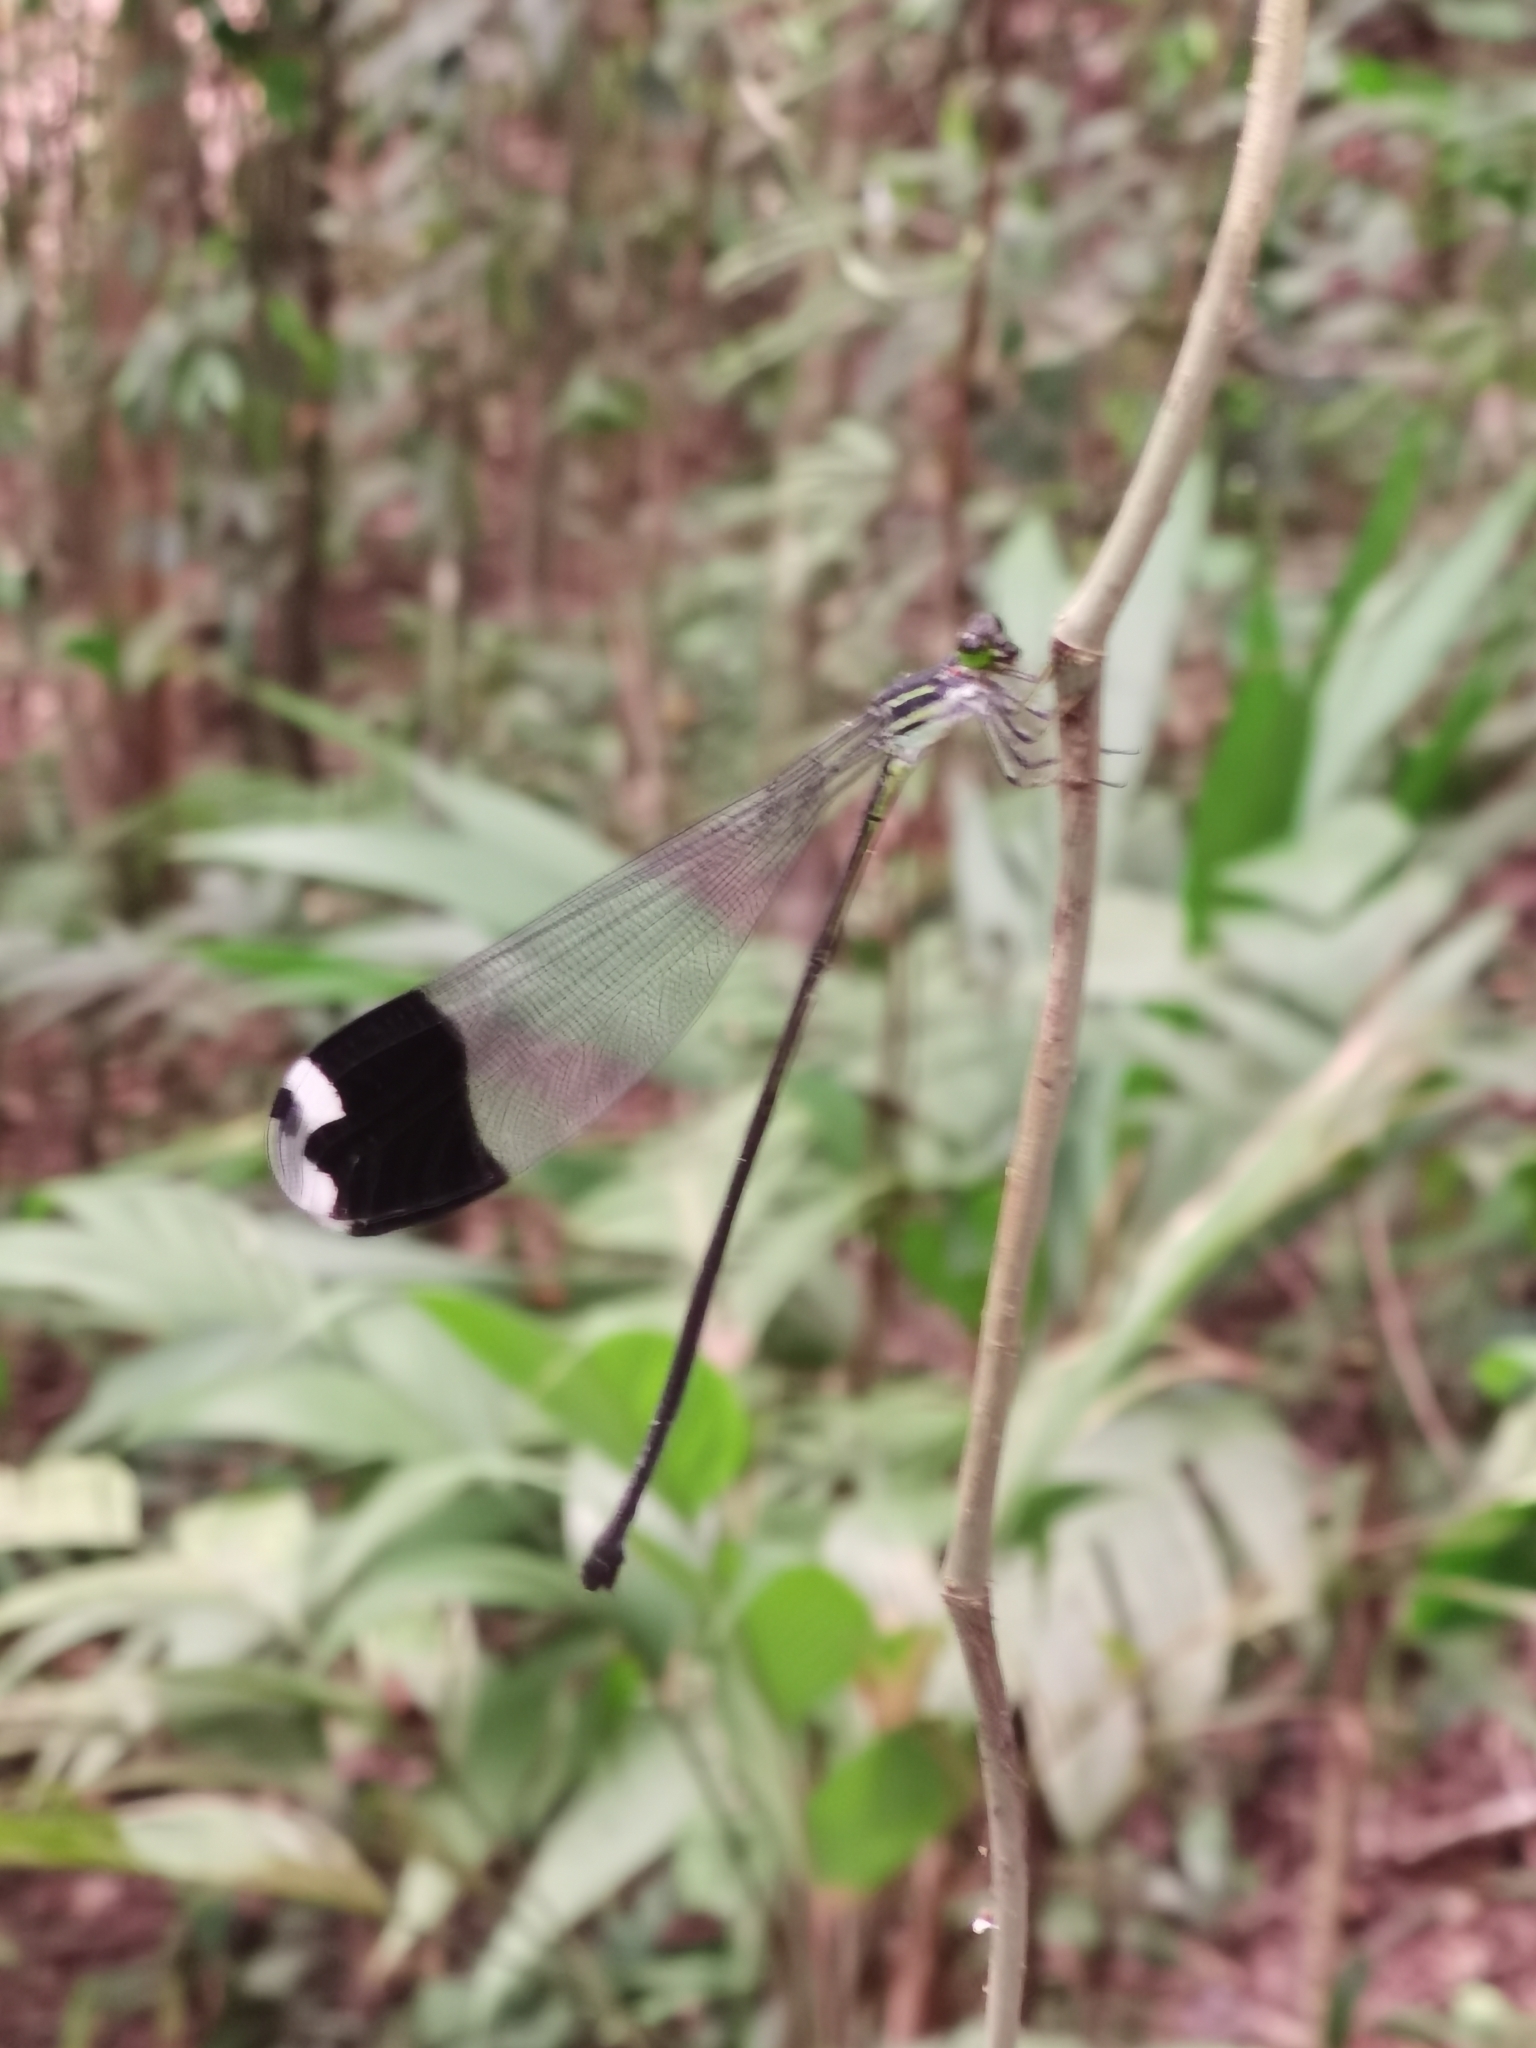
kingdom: Animalia
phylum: Arthropoda
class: Insecta
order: Odonata
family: Coenagrionidae
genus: Megaloprepus
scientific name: Megaloprepus diaboli
